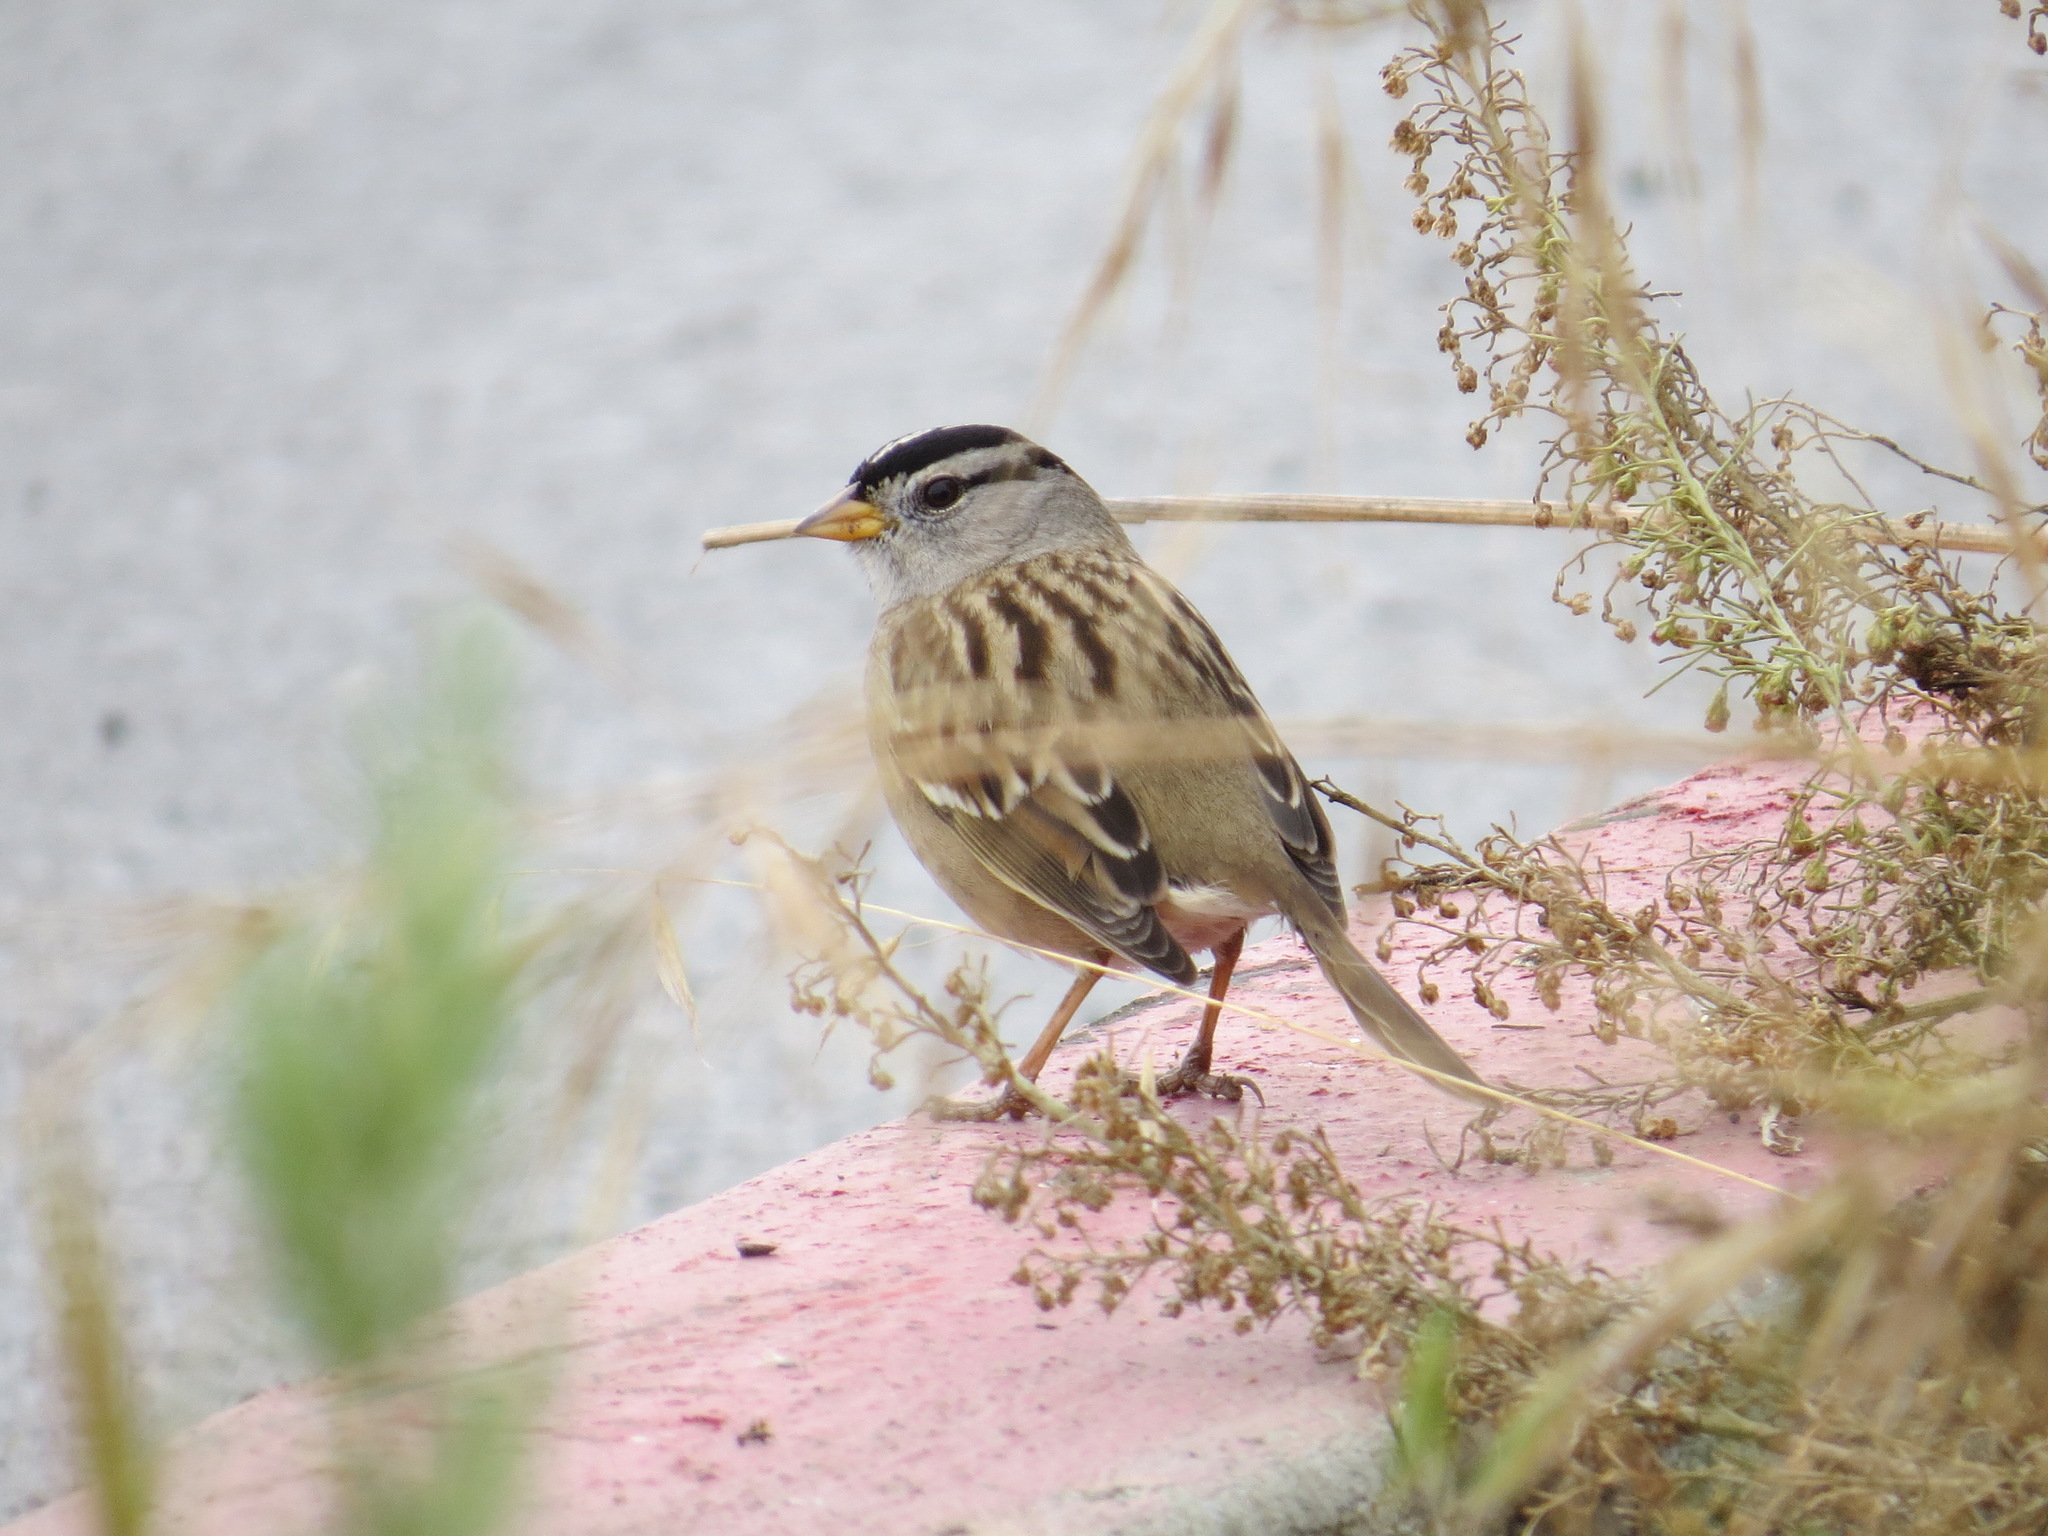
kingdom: Animalia
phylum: Chordata
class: Aves
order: Passeriformes
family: Passerellidae
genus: Zonotrichia
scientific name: Zonotrichia leucophrys
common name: White-crowned sparrow
